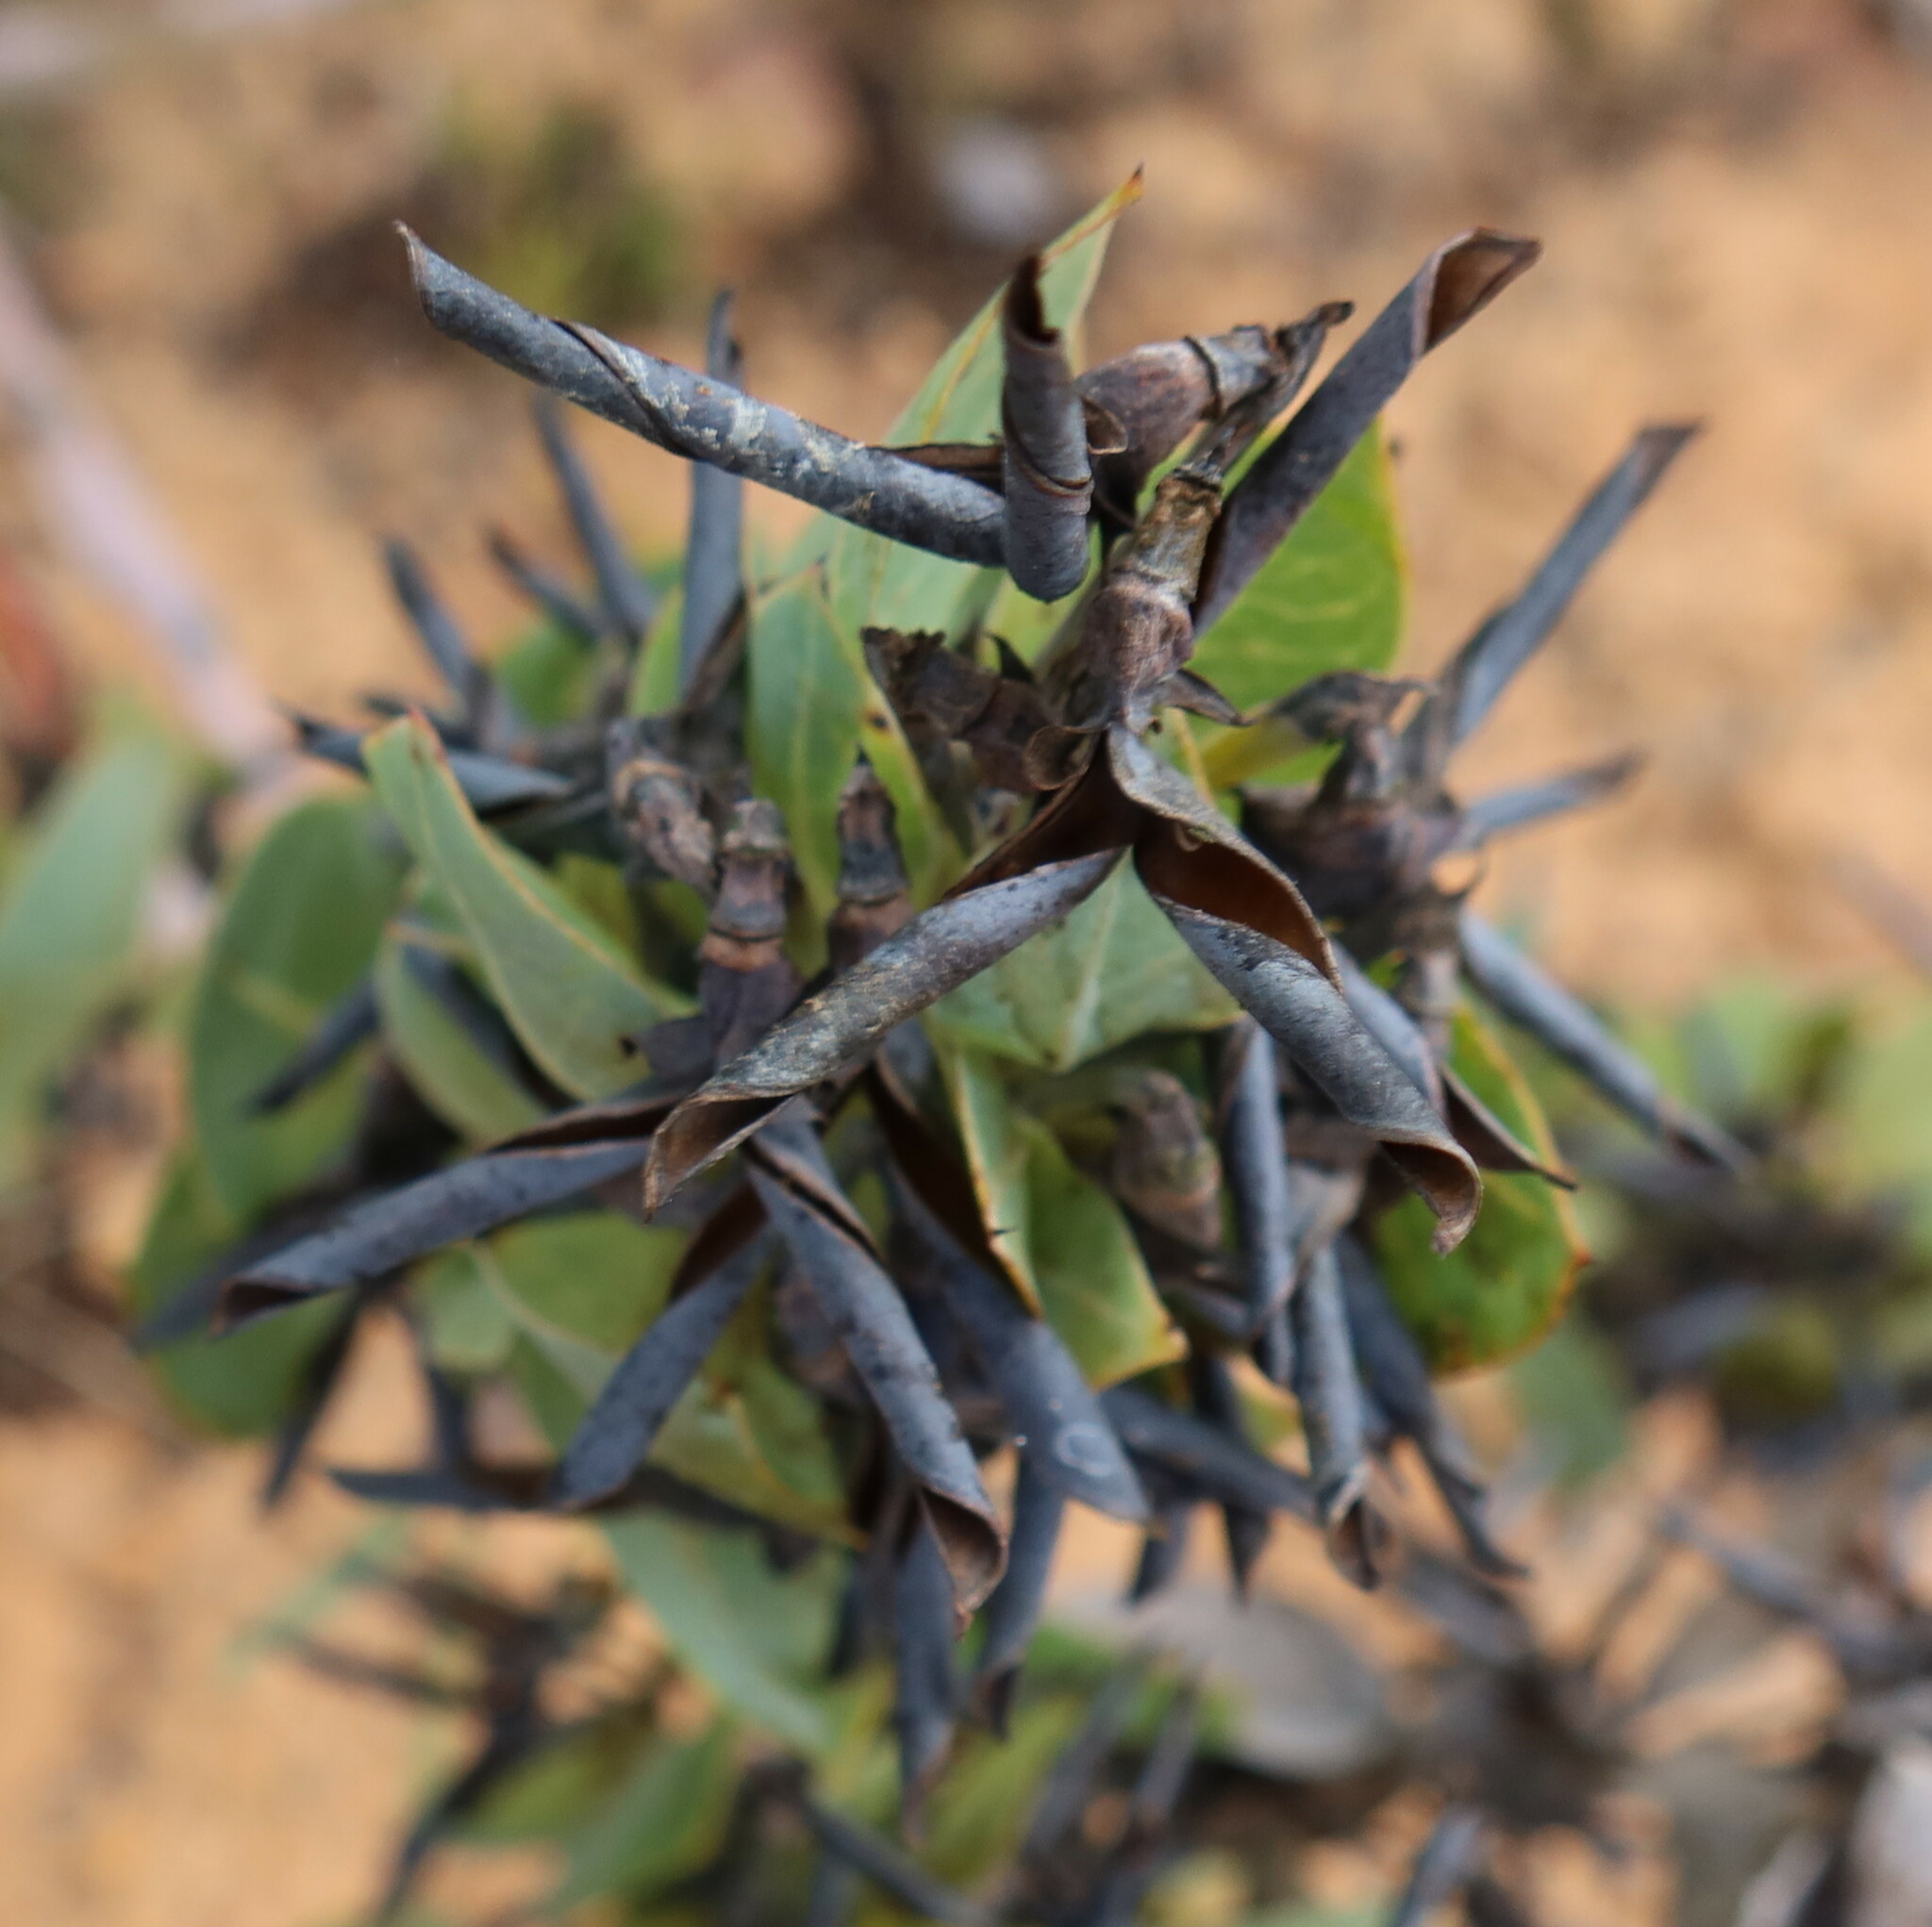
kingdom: Plantae
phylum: Tracheophyta
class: Magnoliopsida
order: Fabales
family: Fabaceae
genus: Rafnia
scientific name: Rafnia triflora
